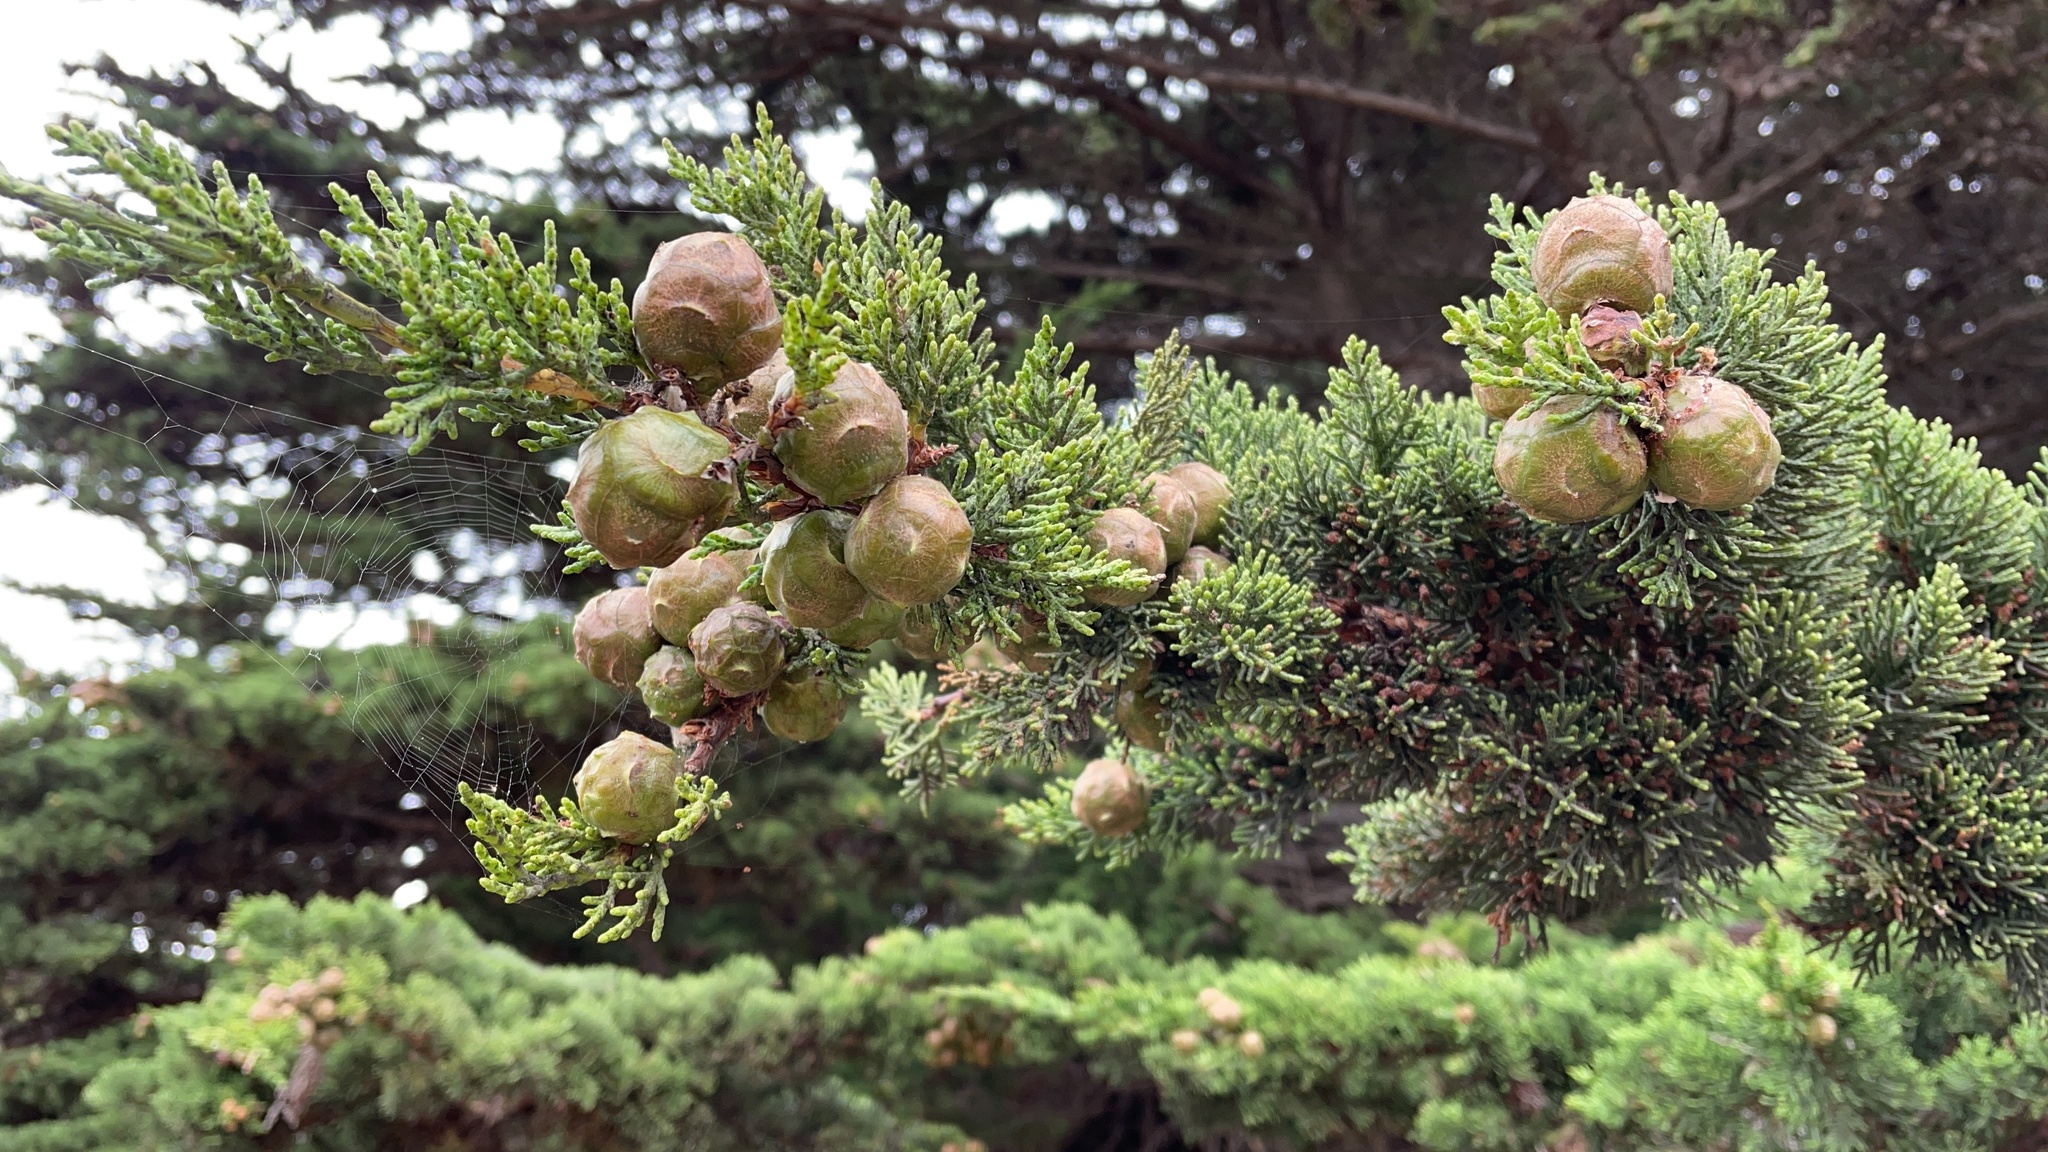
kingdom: Plantae
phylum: Tracheophyta
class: Pinopsida
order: Pinales
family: Cupressaceae
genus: Cupressus
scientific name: Cupressus macrocarpa
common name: Monterey cypress
